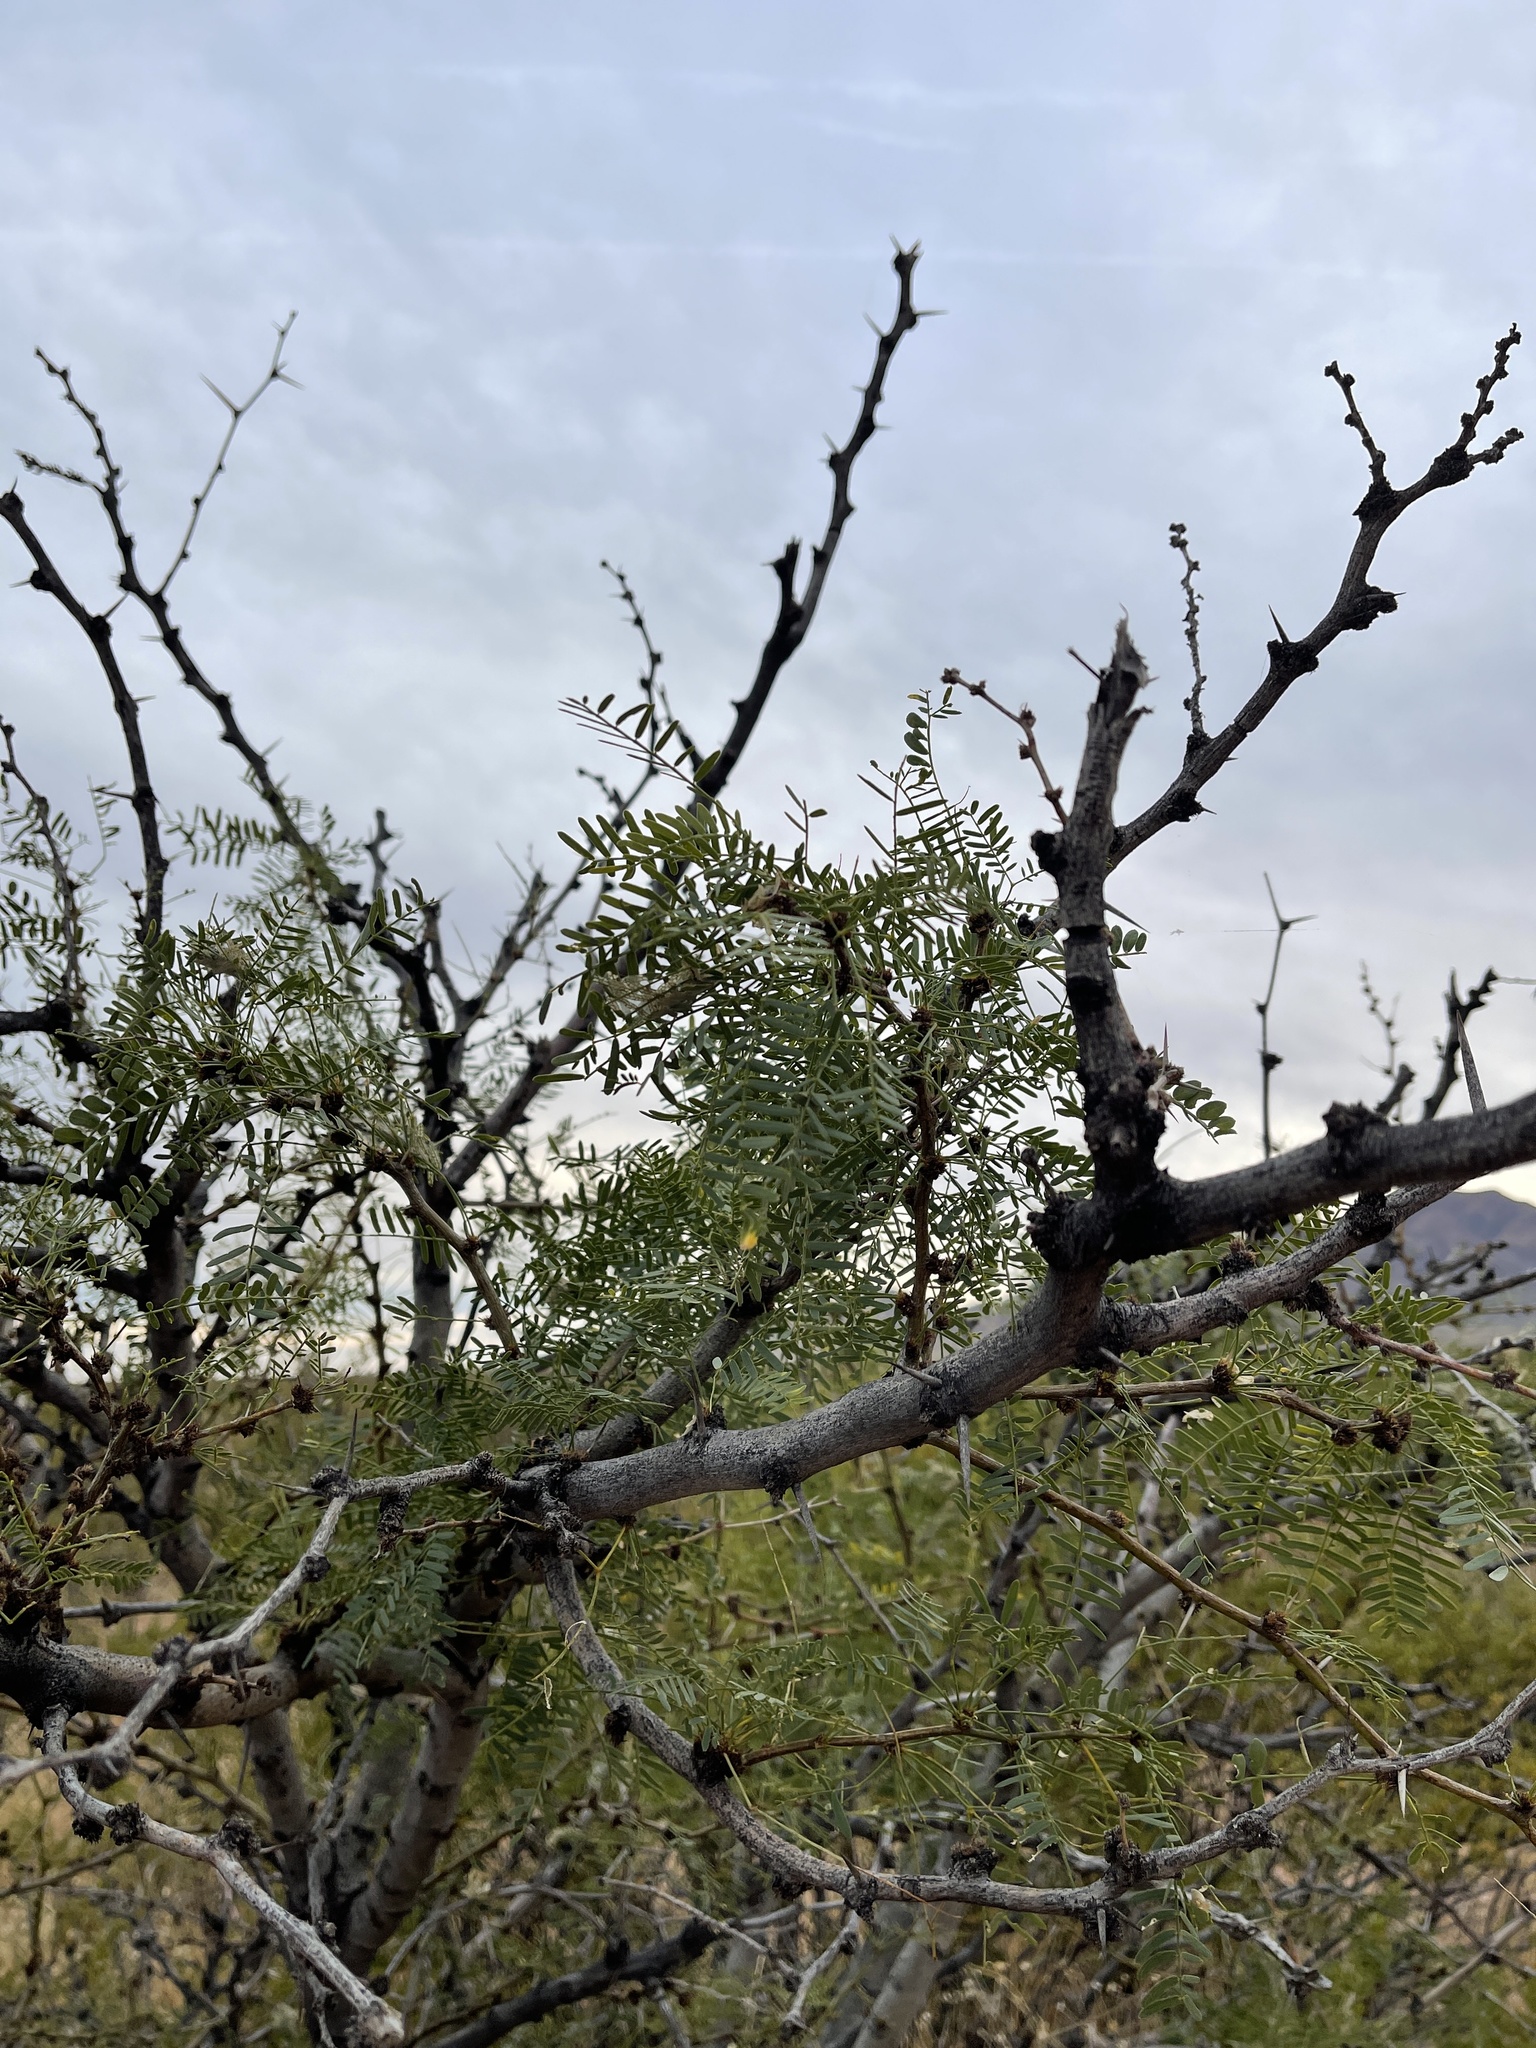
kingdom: Plantae
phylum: Tracheophyta
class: Magnoliopsida
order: Fabales
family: Fabaceae
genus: Prosopis
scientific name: Prosopis glandulosa
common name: Honey mesquite
